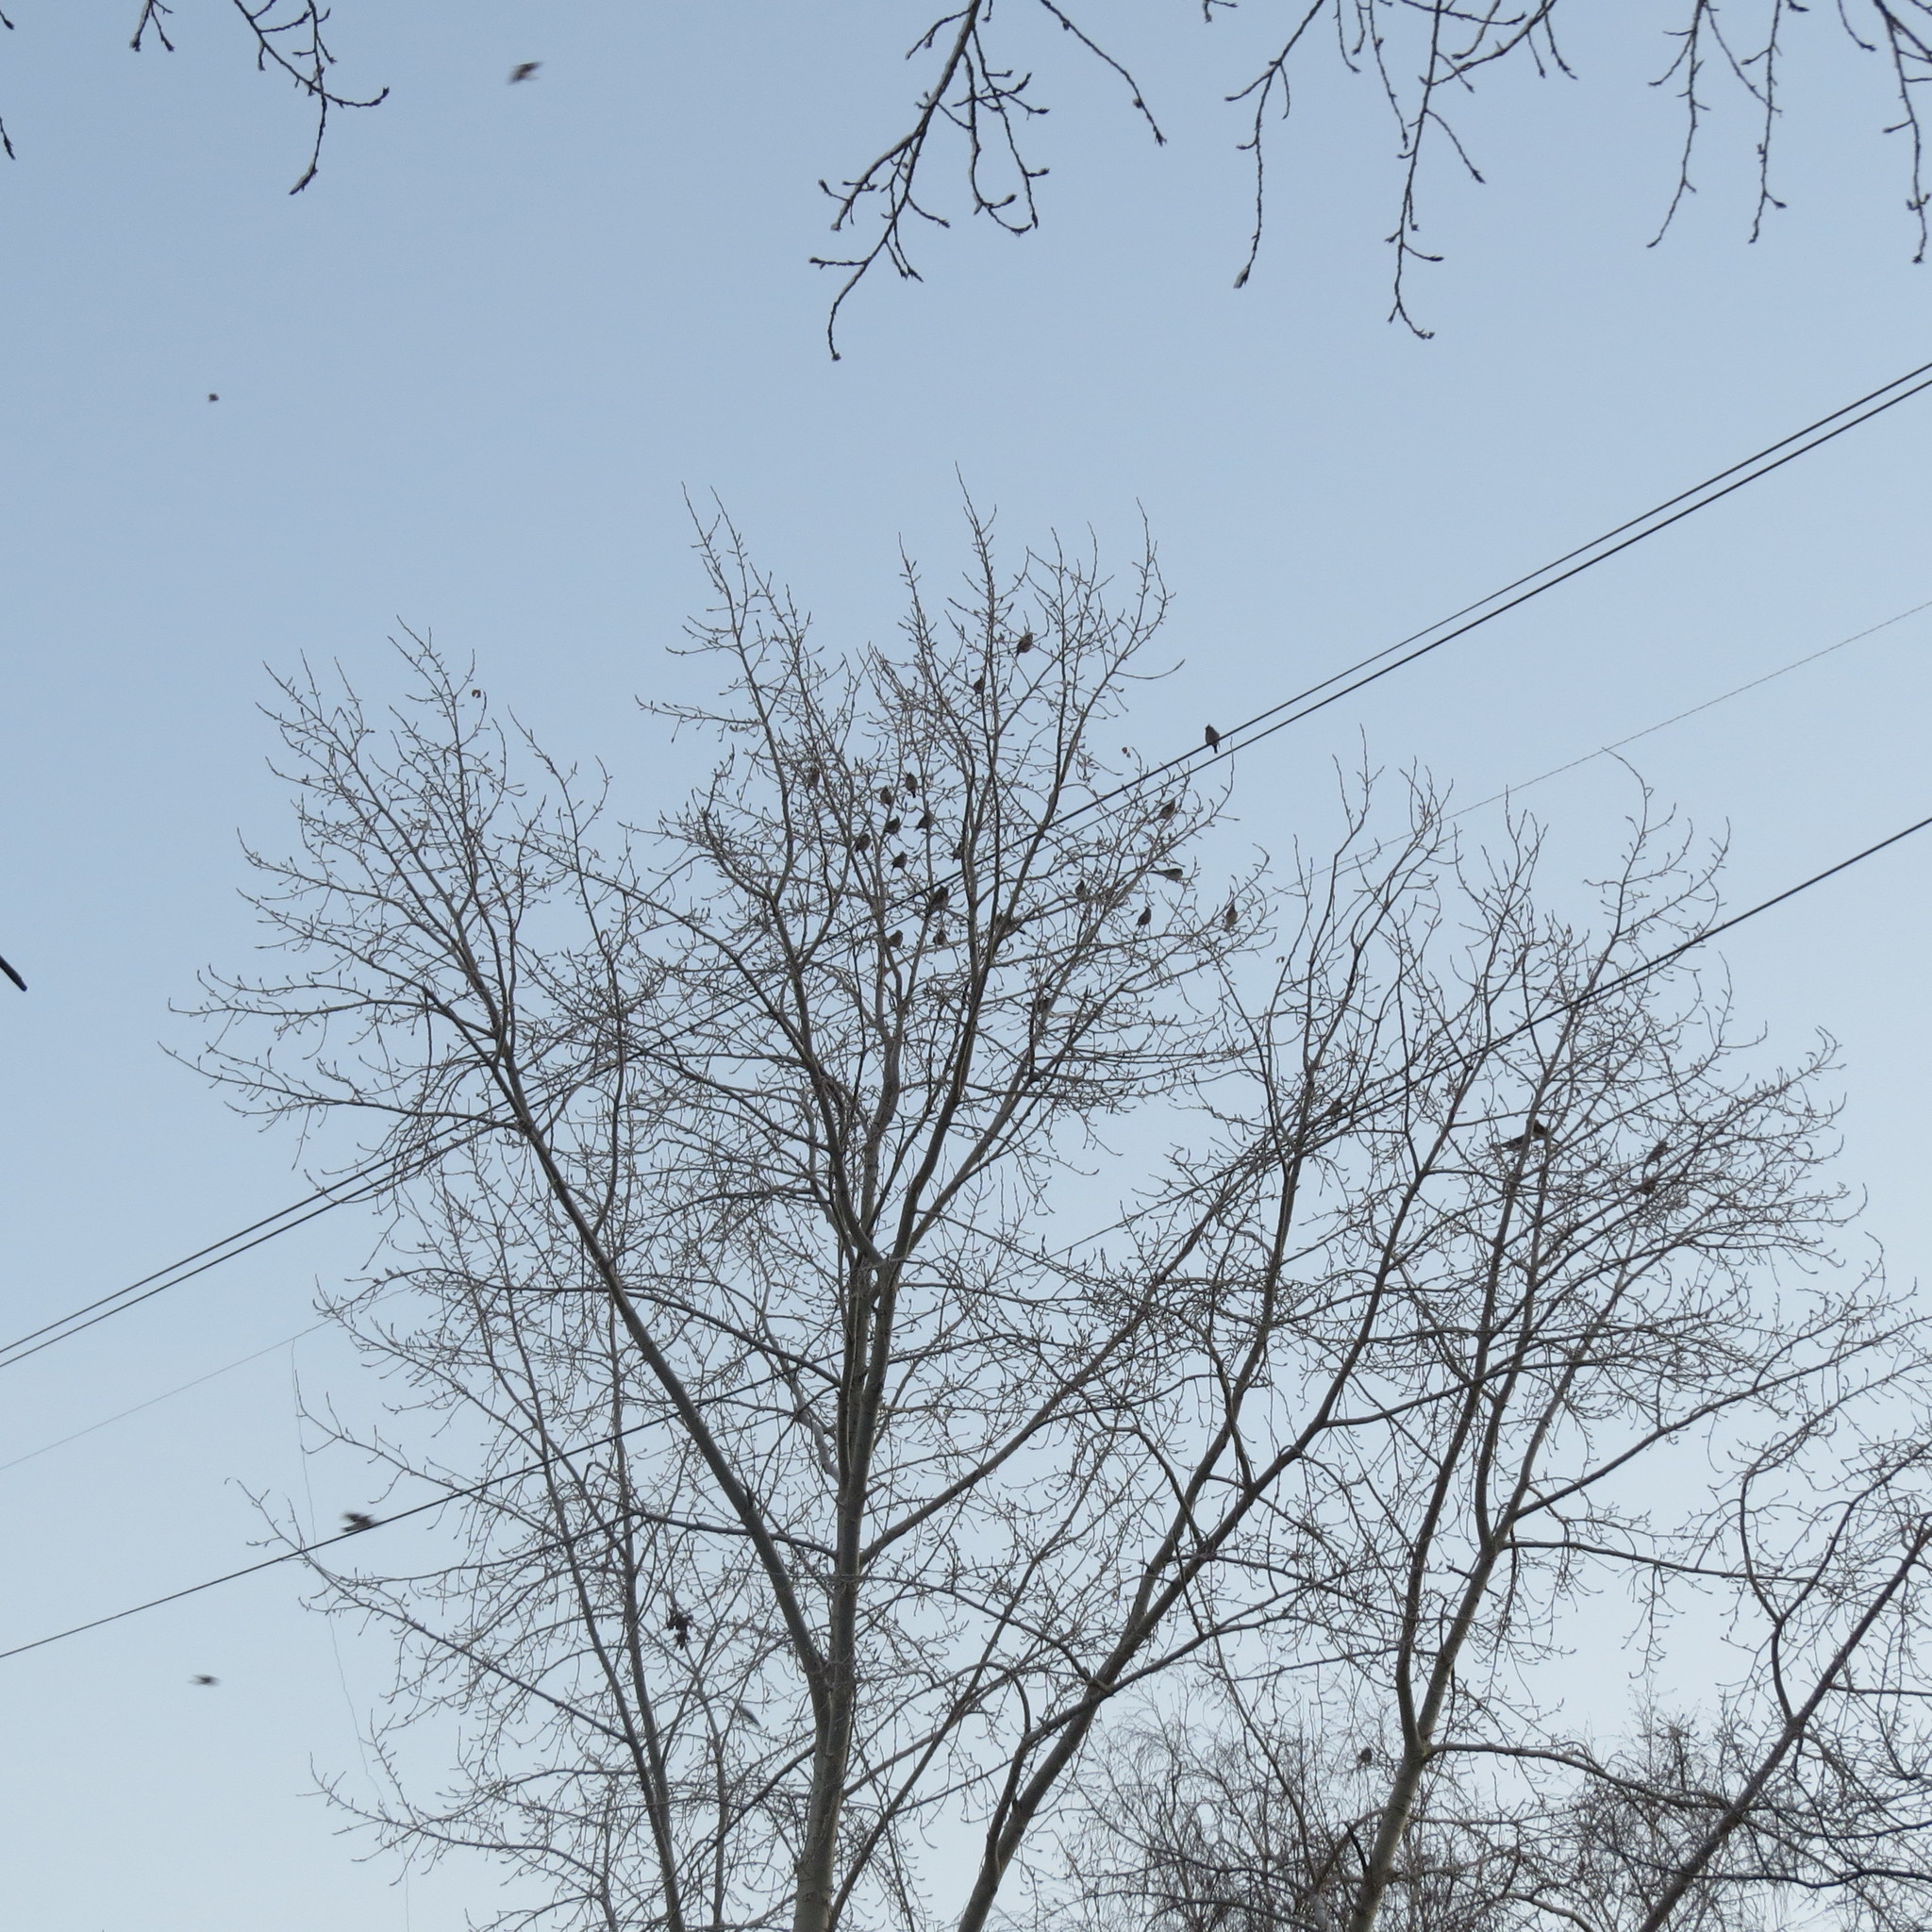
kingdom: Animalia
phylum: Chordata
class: Aves
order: Passeriformes
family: Bombycillidae
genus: Bombycilla
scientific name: Bombycilla garrulus
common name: Bohemian waxwing
